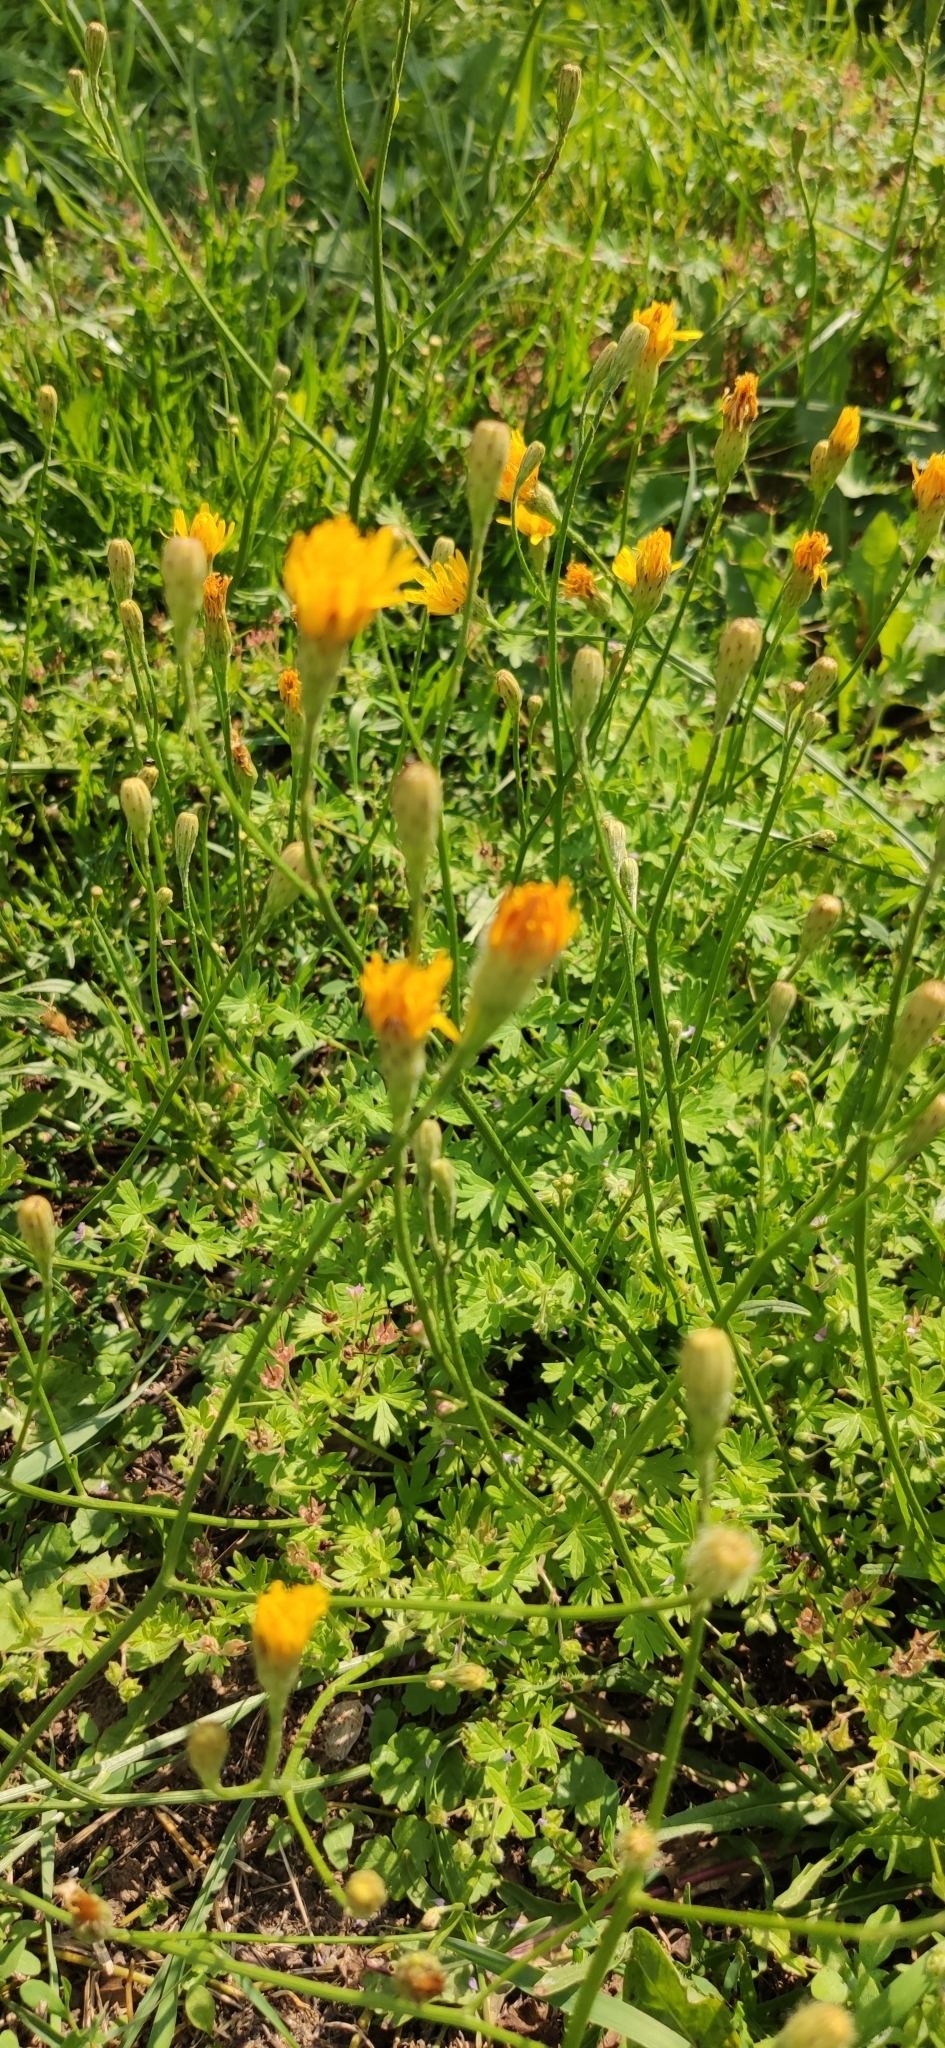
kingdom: Plantae
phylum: Tracheophyta
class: Magnoliopsida
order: Asterales
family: Asteraceae
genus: Scorzoneroides
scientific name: Scorzoneroides autumnalis
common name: Autumn hawkbit
